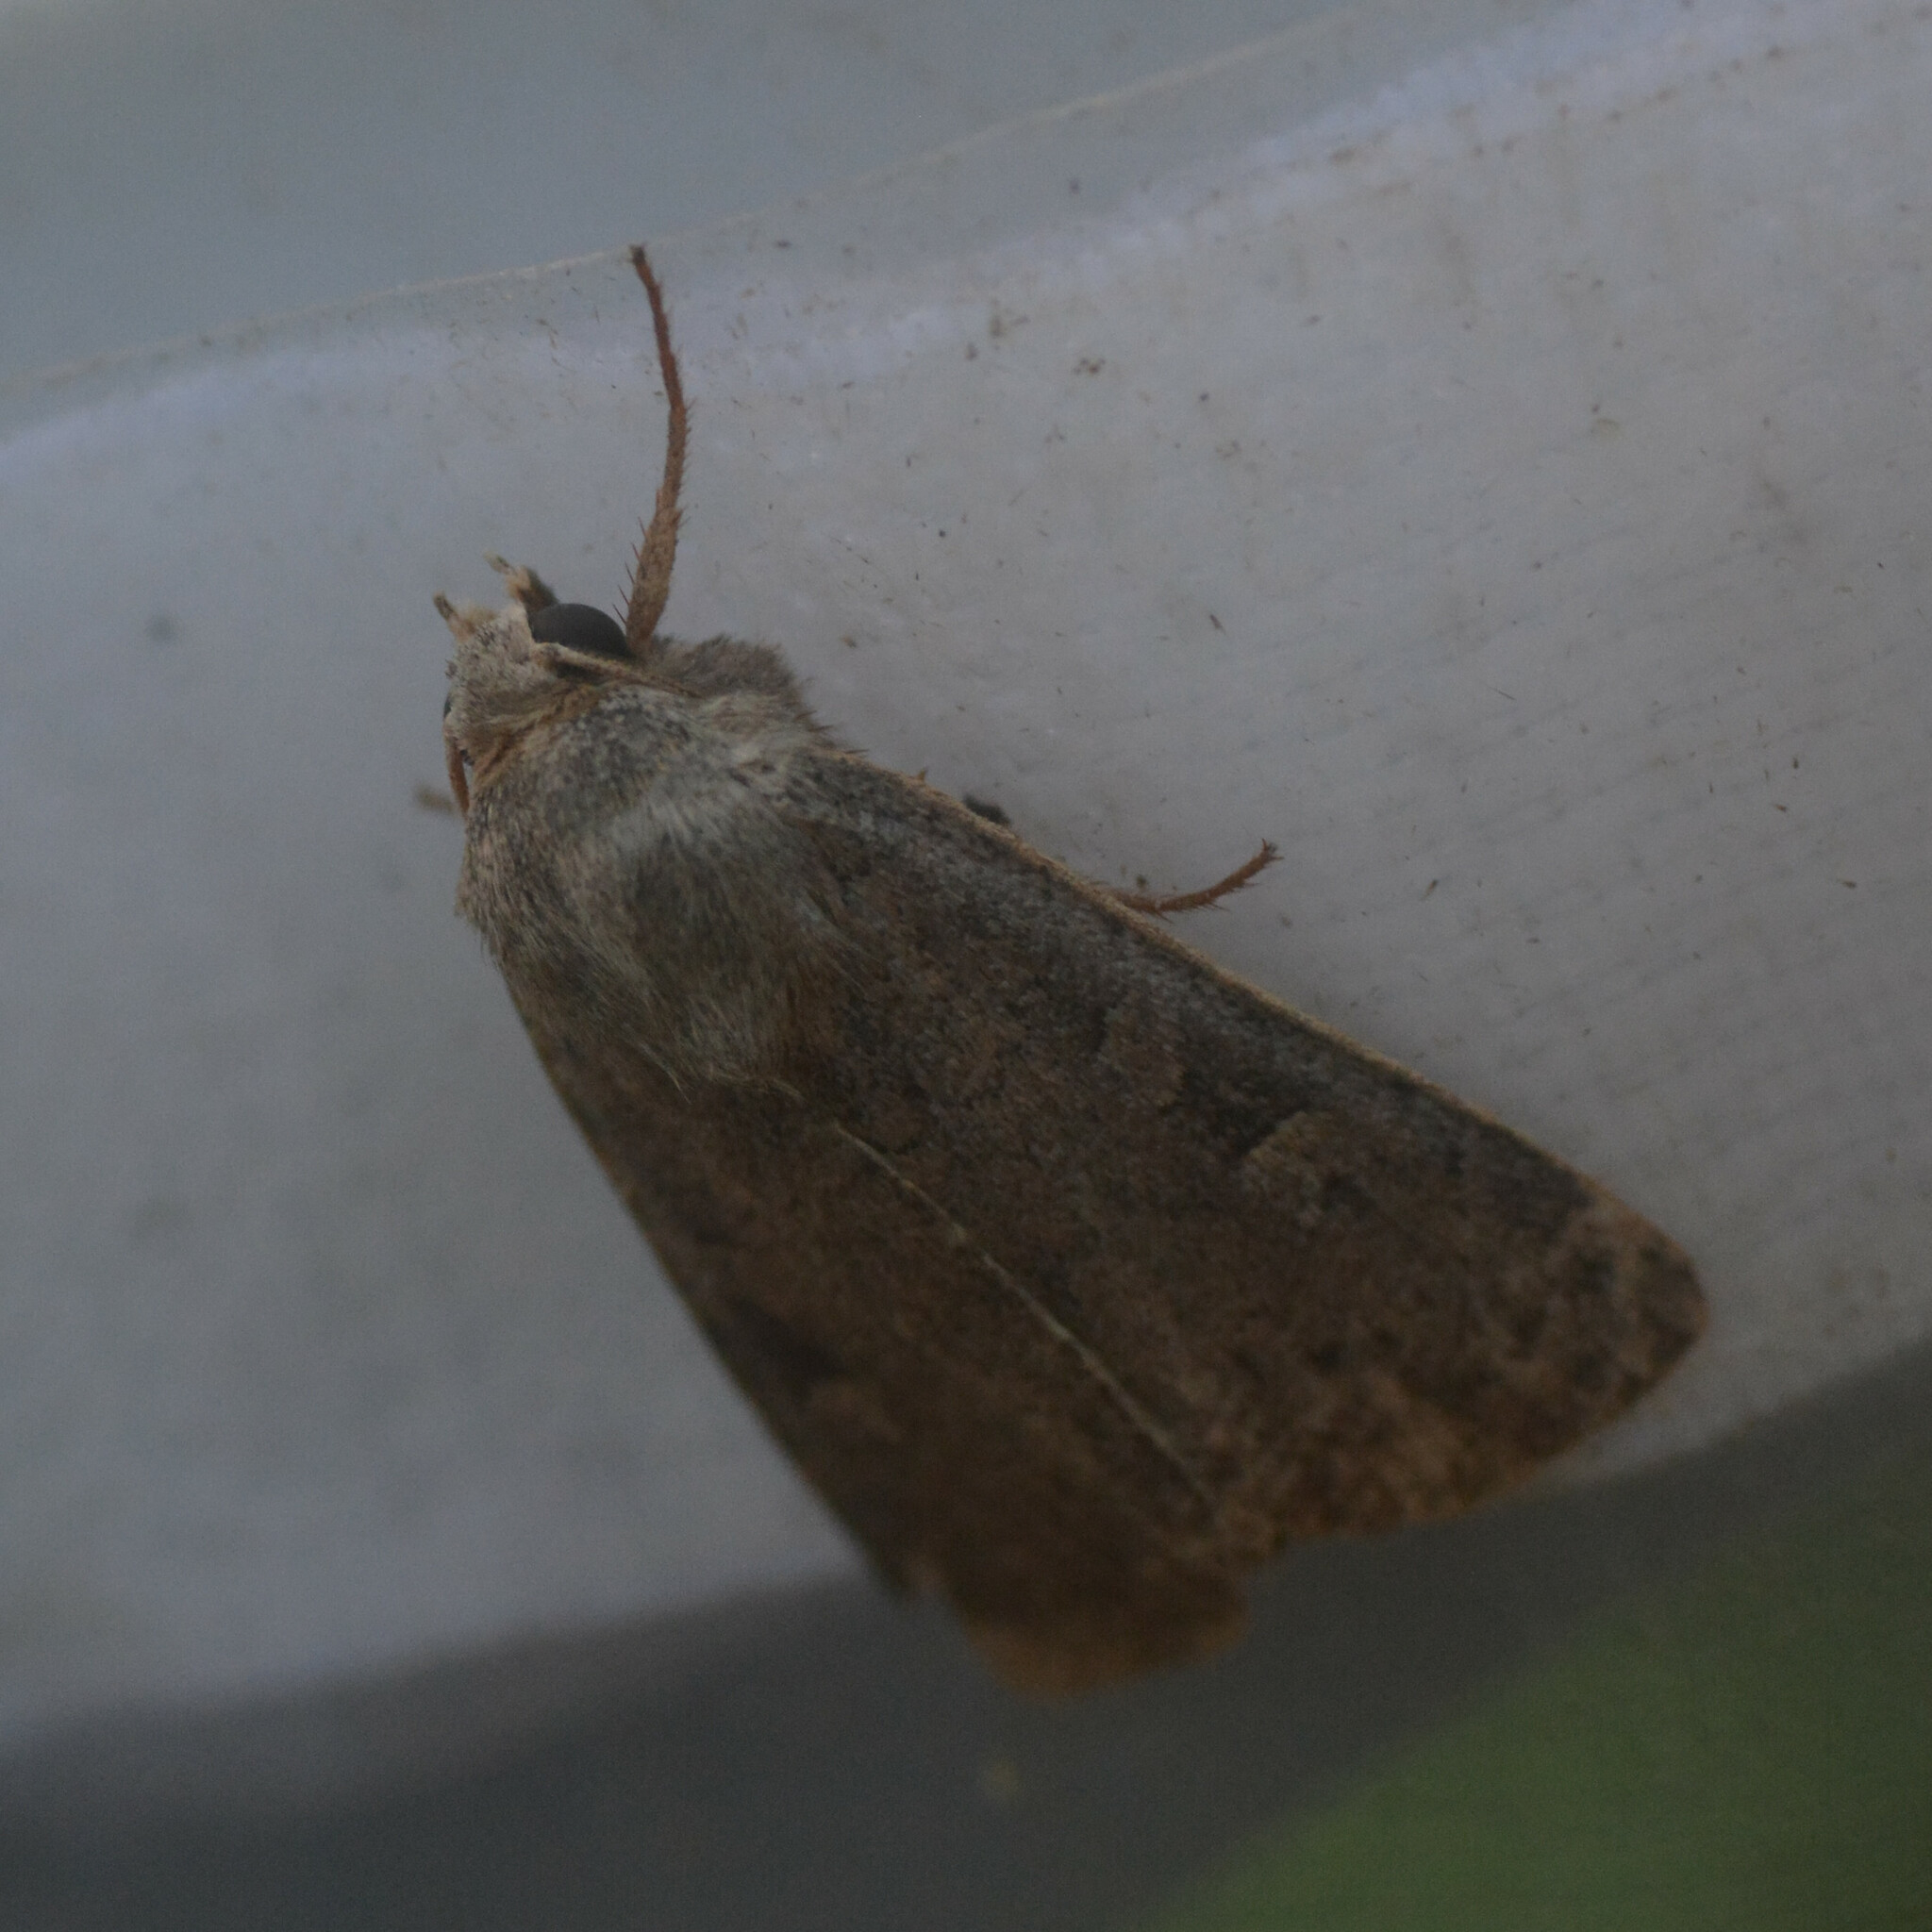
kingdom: Animalia
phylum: Arthropoda
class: Insecta
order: Lepidoptera
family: Noctuidae
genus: Xestia
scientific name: Xestia xanthographa
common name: Square-spot rustic
